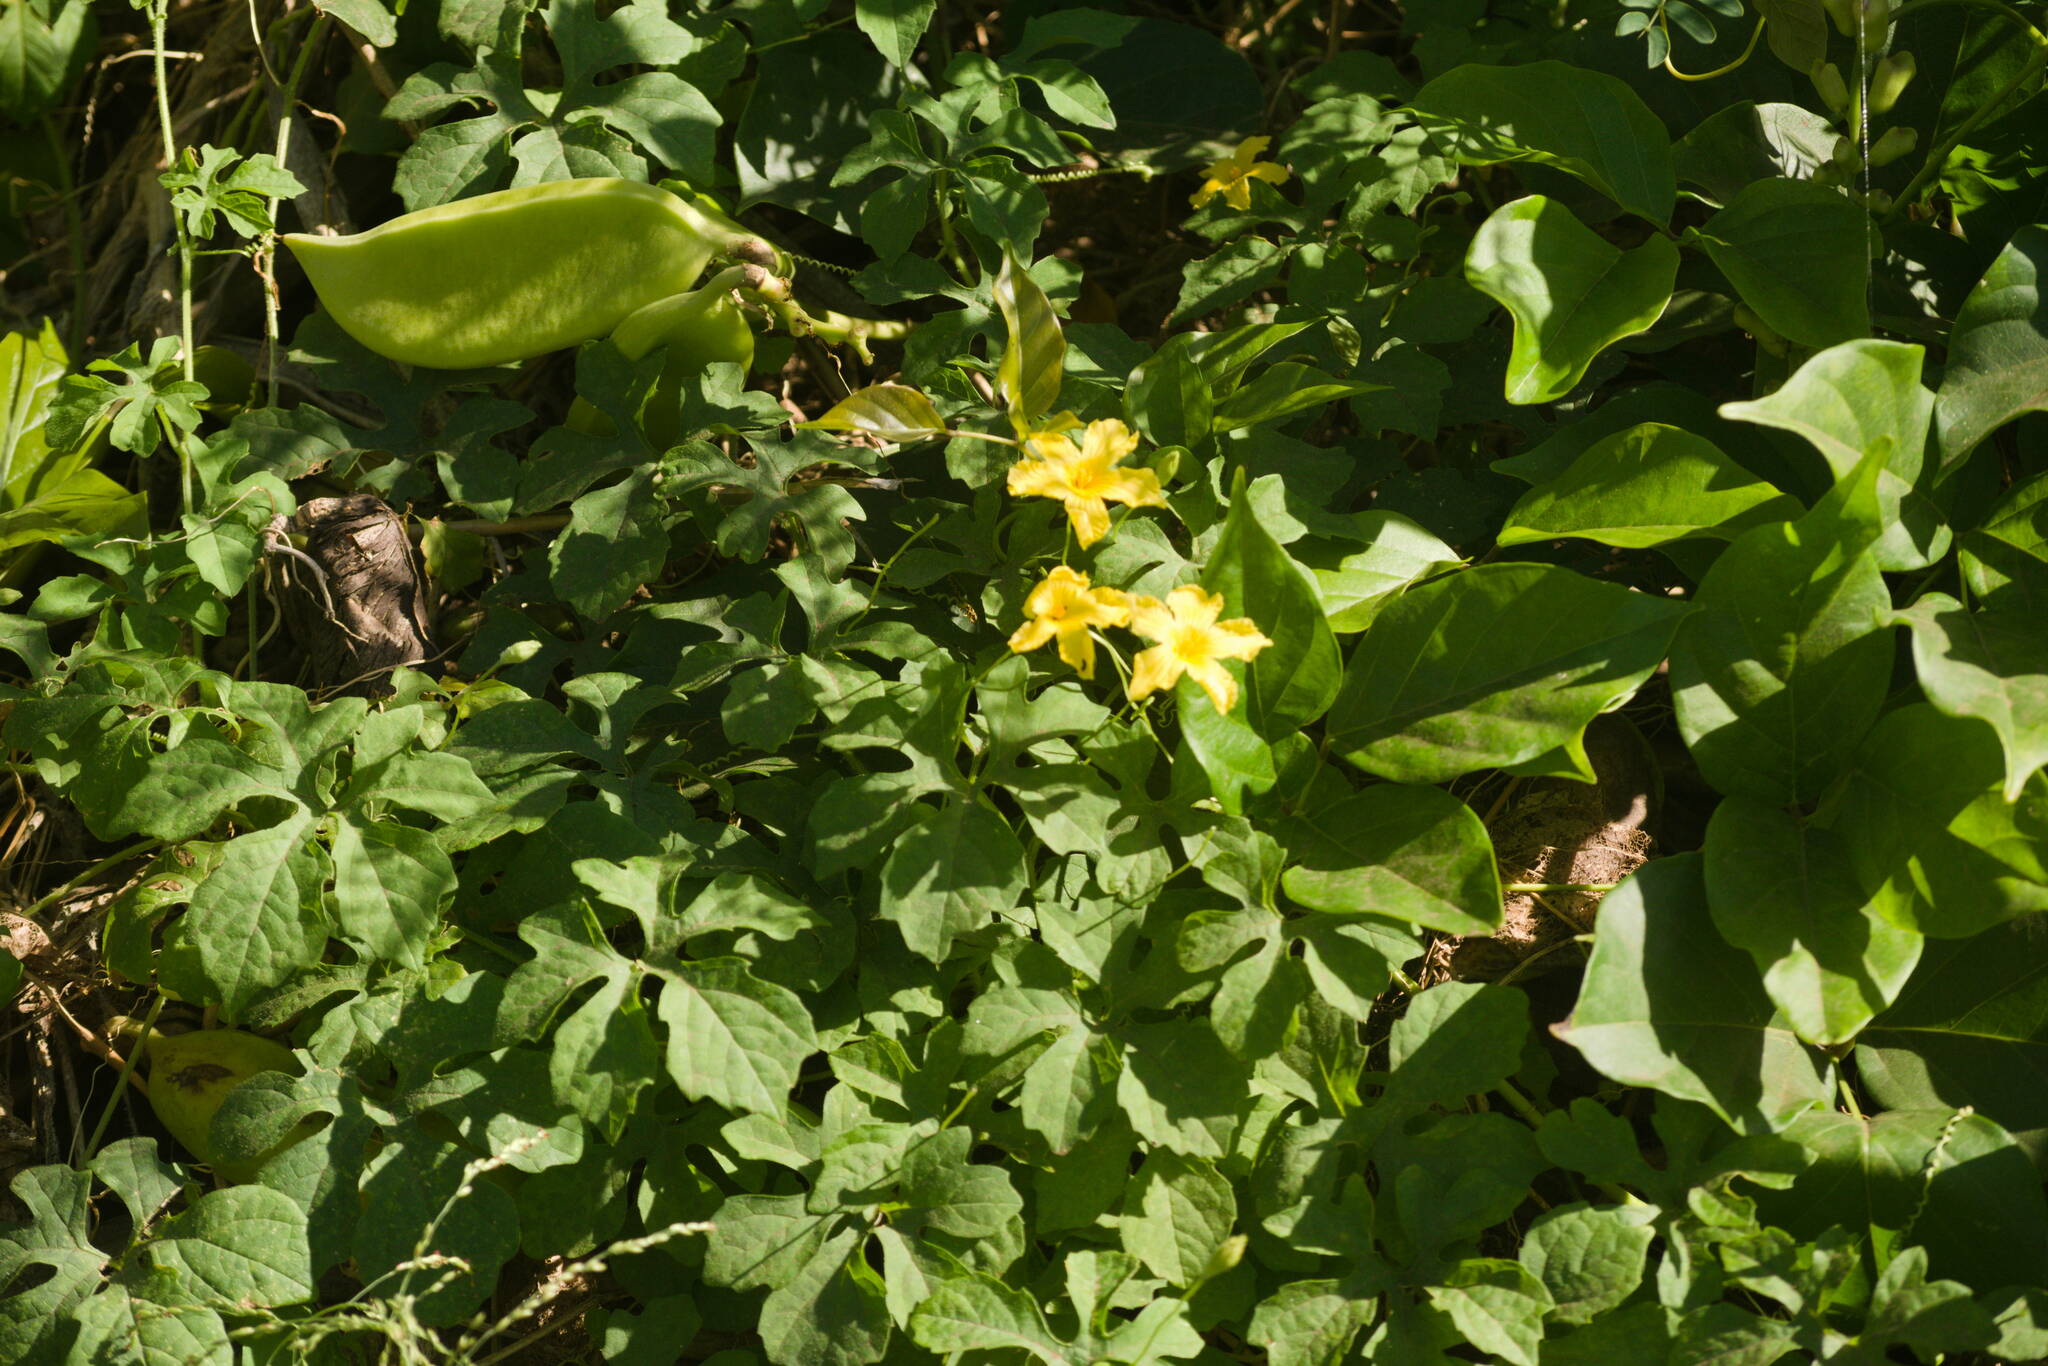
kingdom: Plantae
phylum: Tracheophyta
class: Magnoliopsida
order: Cucurbitales
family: Cucurbitaceae
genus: Momordica
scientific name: Momordica charantia
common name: Balsampear
